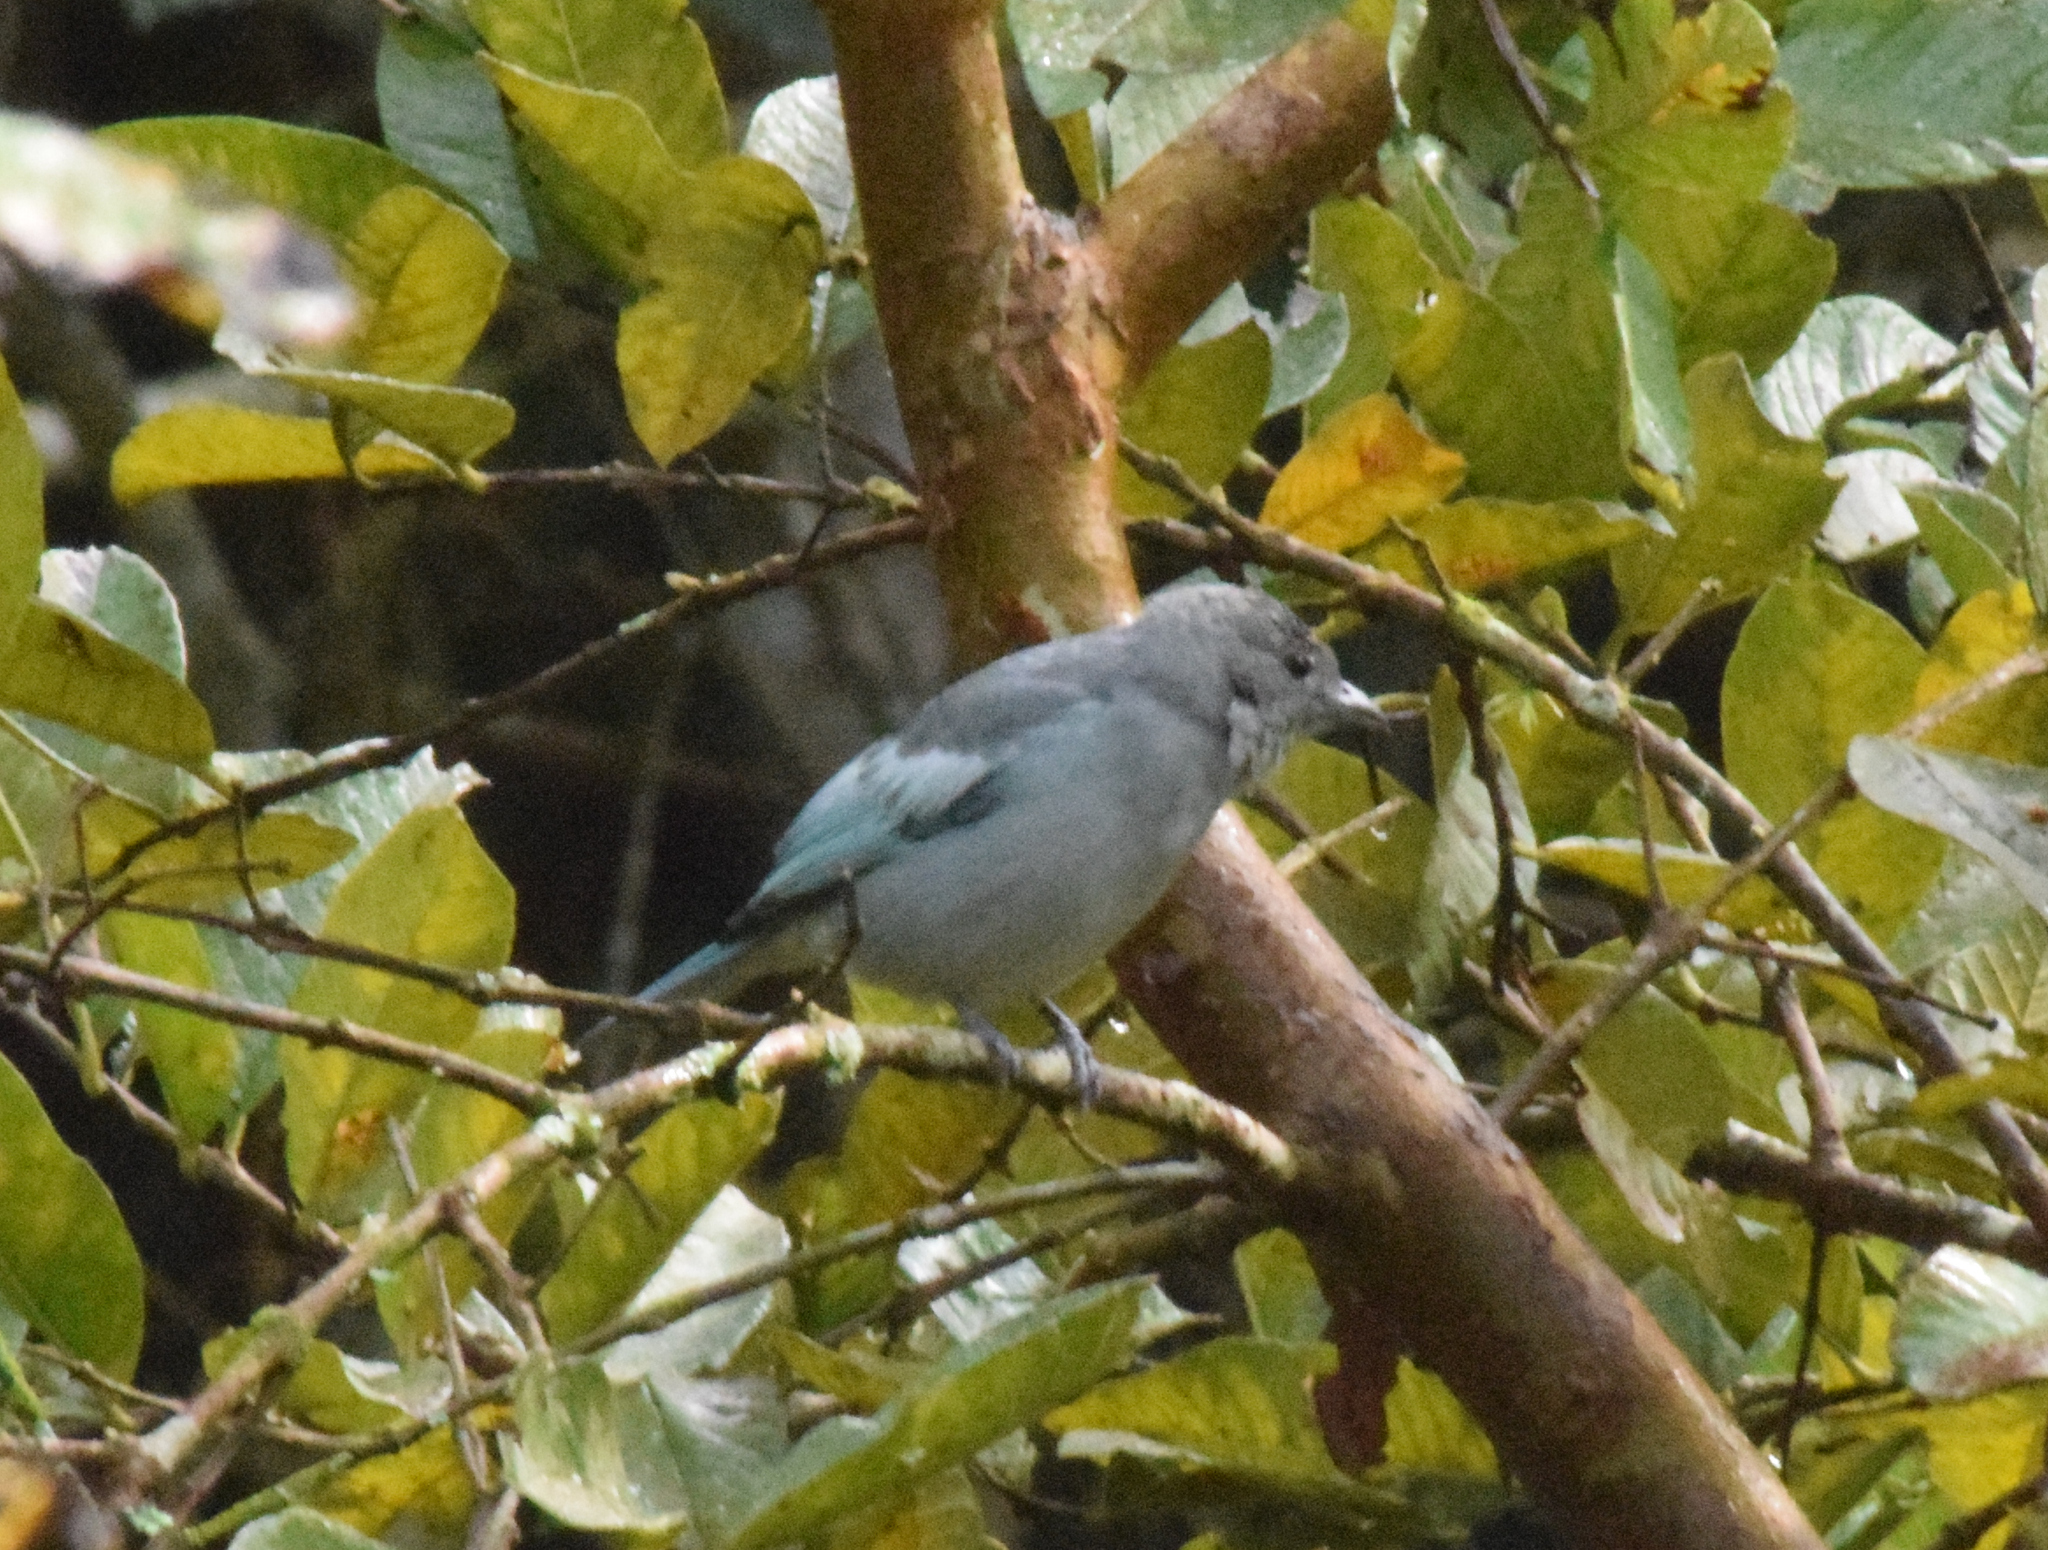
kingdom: Animalia
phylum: Chordata
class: Aves
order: Passeriformes
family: Thraupidae
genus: Thraupis
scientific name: Thraupis sayaca
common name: Sayaca tanager
